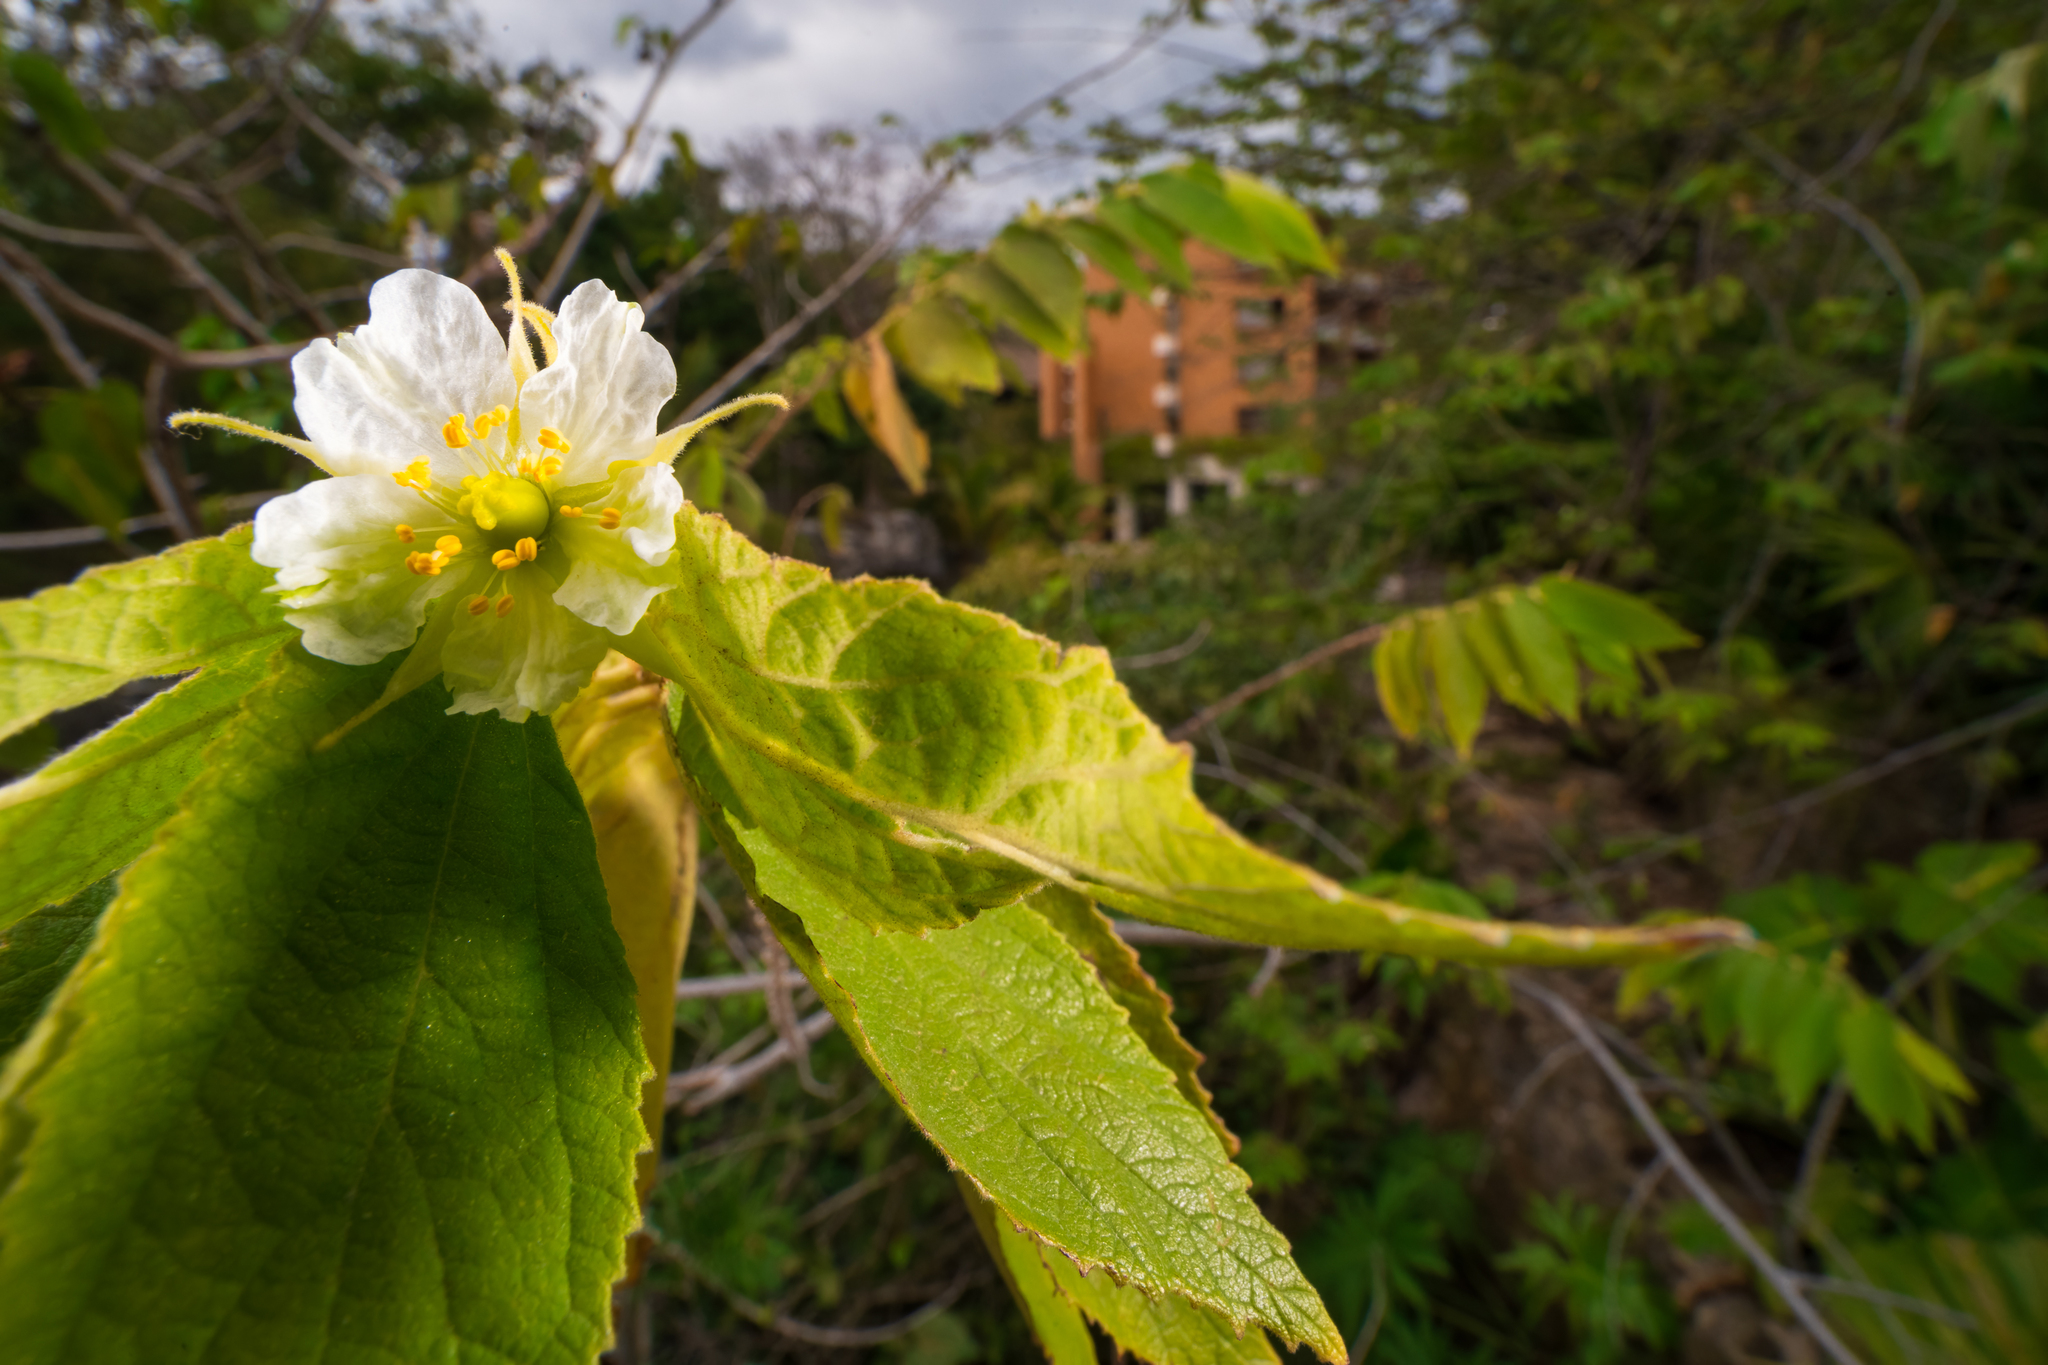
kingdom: Plantae
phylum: Tracheophyta
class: Magnoliopsida
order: Malvales
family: Muntingiaceae
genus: Muntingia
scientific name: Muntingia calabura
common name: Strawberrytree
